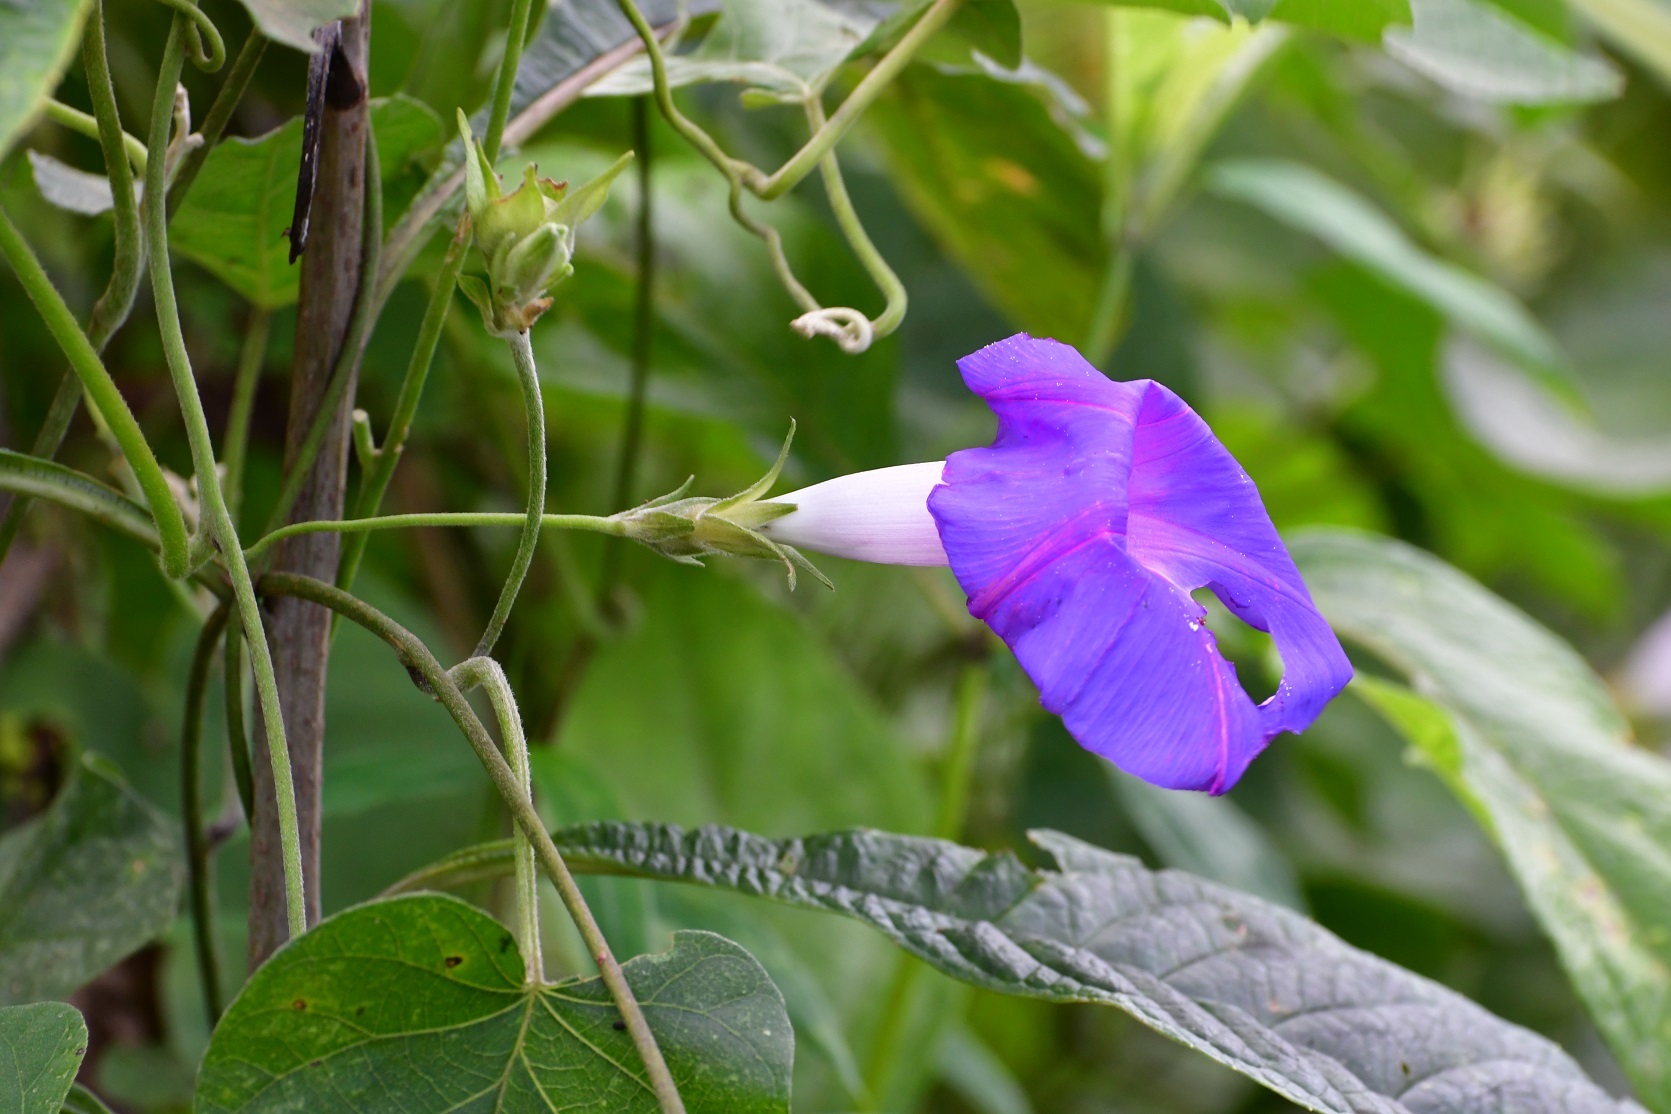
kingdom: Plantae
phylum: Tracheophyta
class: Magnoliopsida
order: Solanales
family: Convolvulaceae
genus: Ipomoea
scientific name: Ipomoea indica
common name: Blue dawnflower
